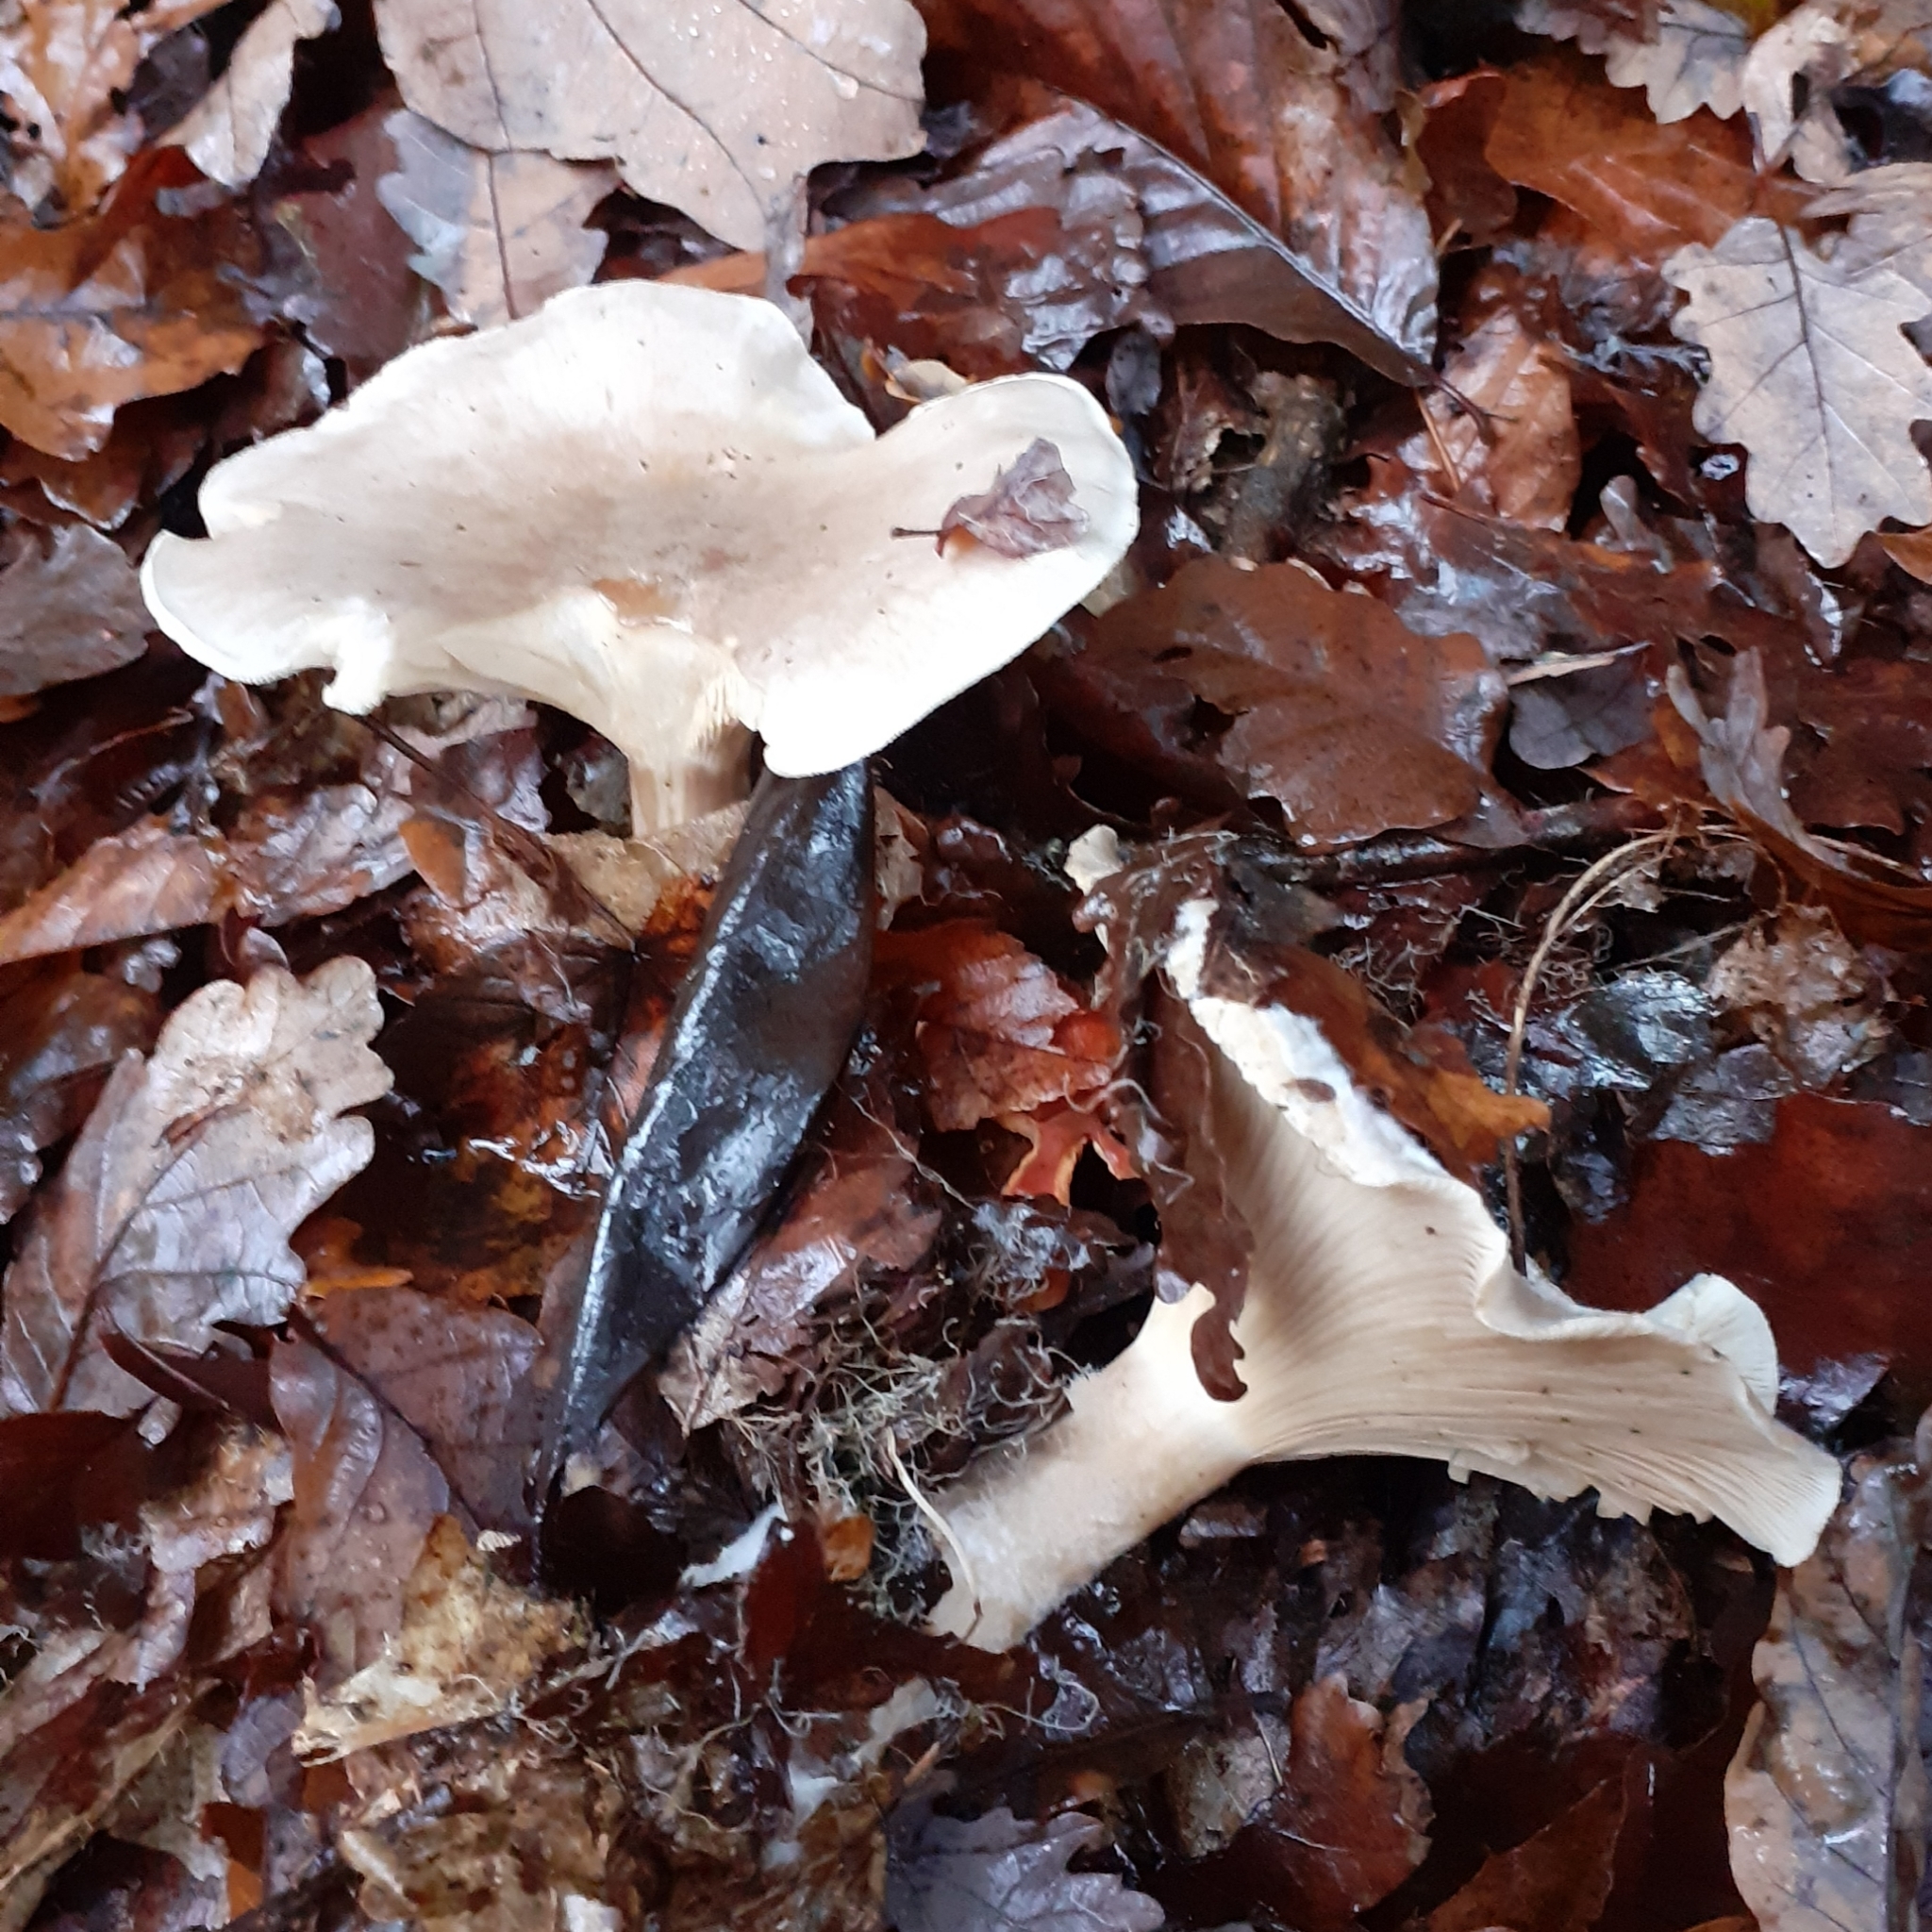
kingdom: Fungi
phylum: Basidiomycota
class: Agaricomycetes
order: Agaricales
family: Tricholomataceae
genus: Clitocybe
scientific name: Clitocybe nebularis
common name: Clouded agaric
